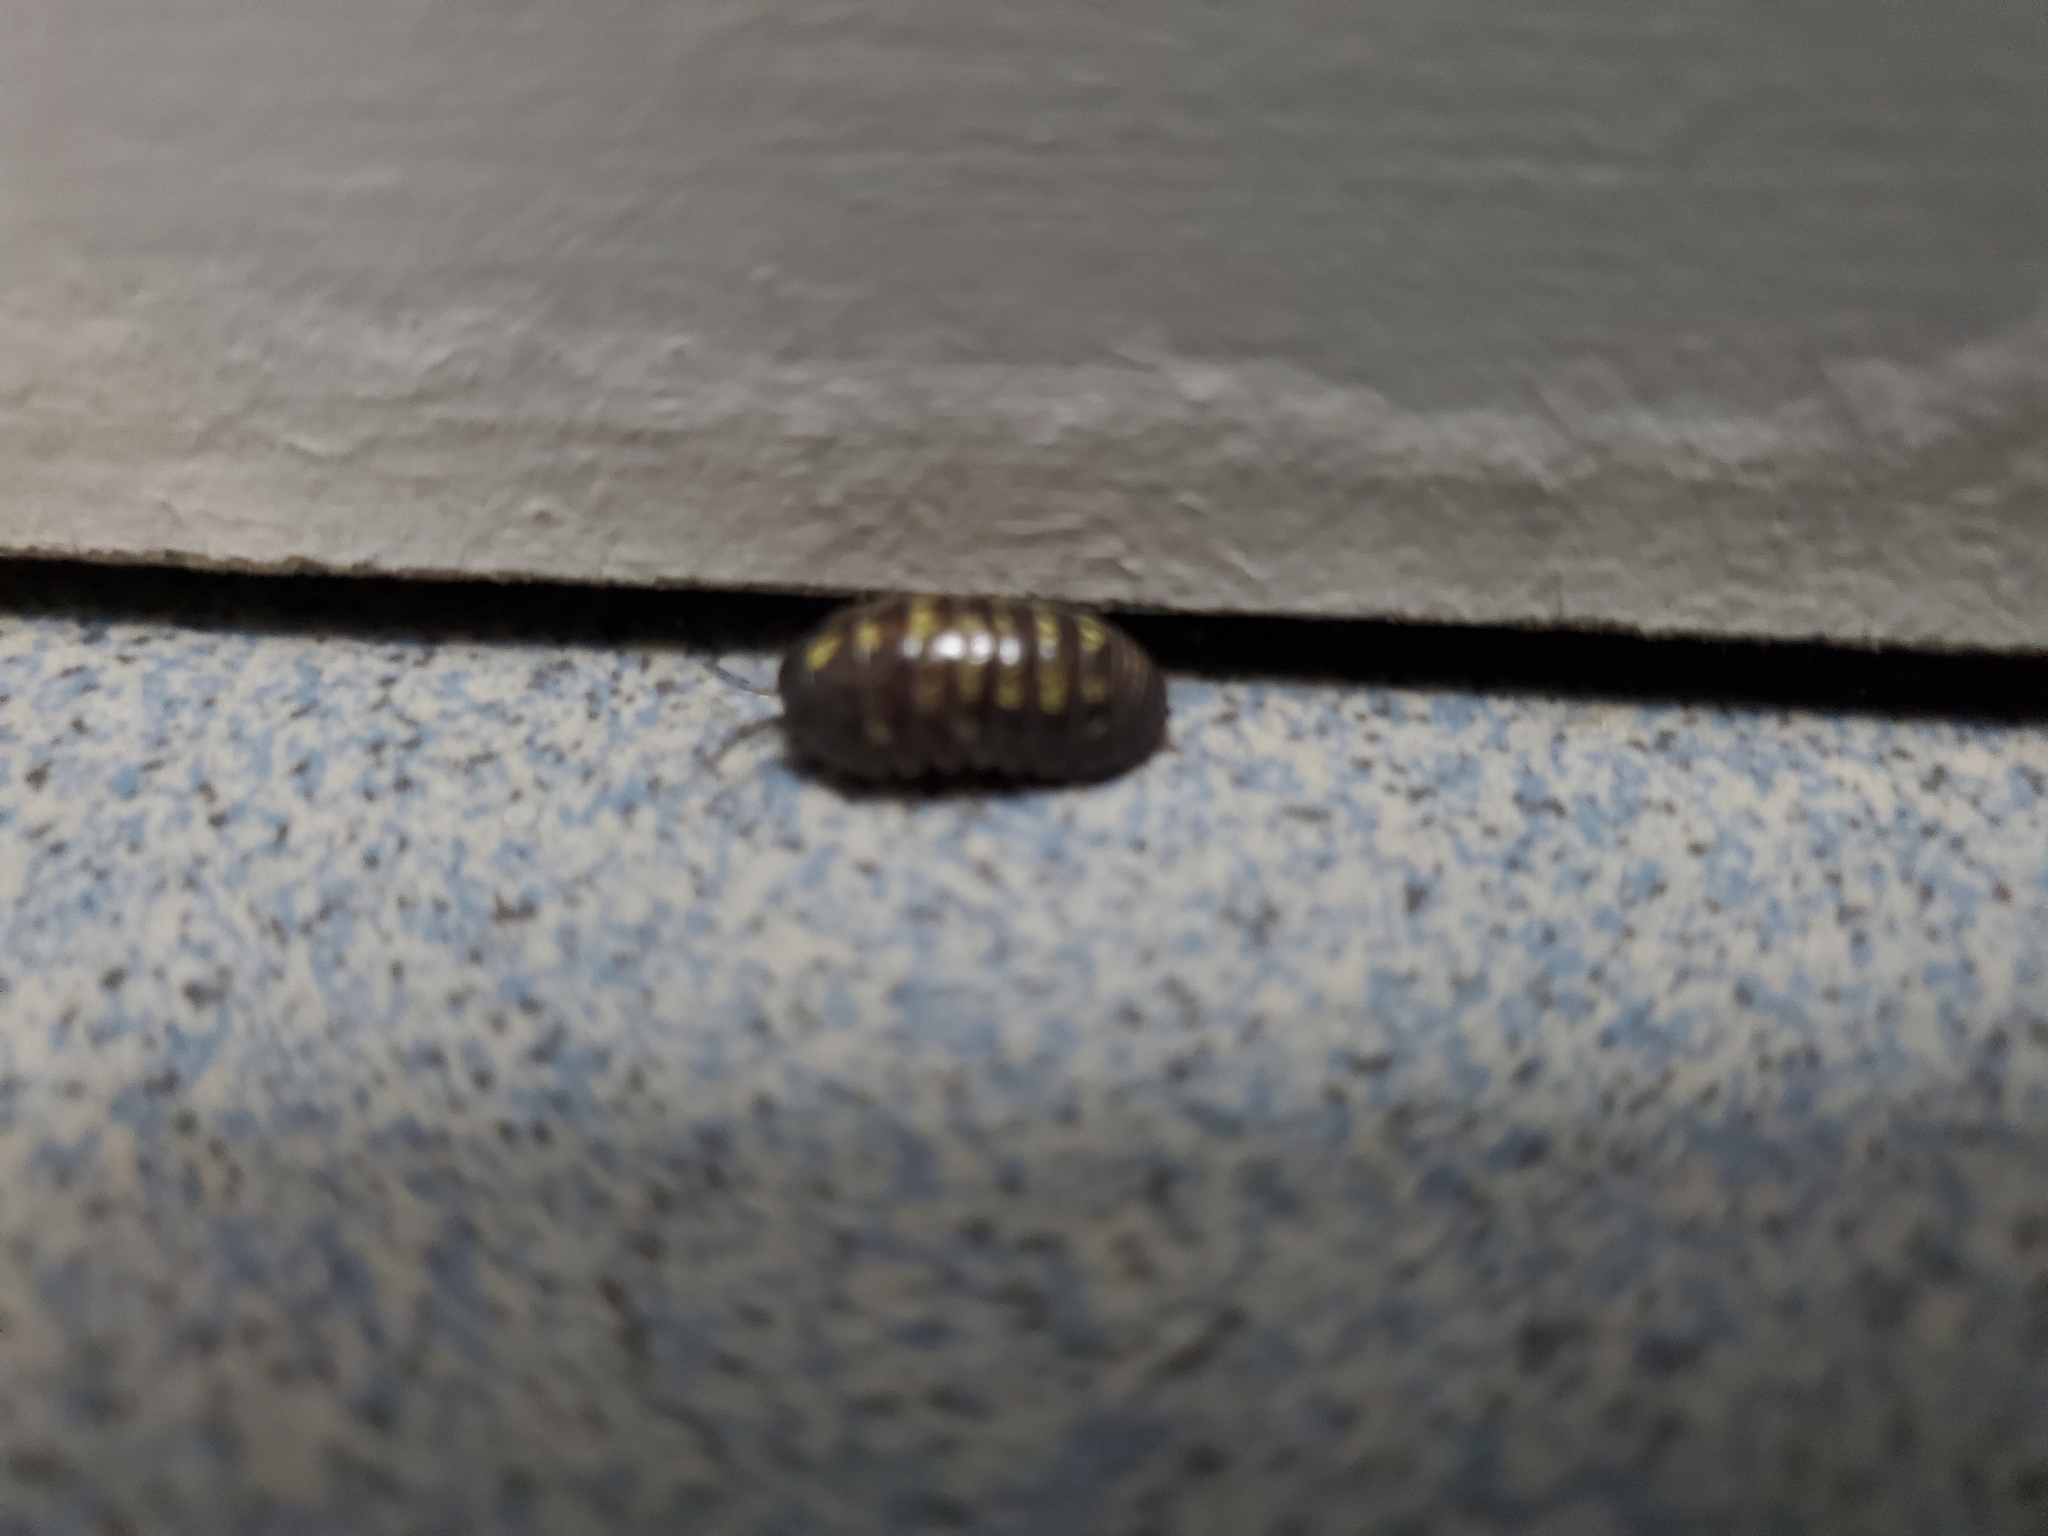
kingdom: Animalia
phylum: Arthropoda
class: Malacostraca
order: Isopoda
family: Armadillidiidae
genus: Armadillidium
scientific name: Armadillidium vulgare
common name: Common pill woodlouse
